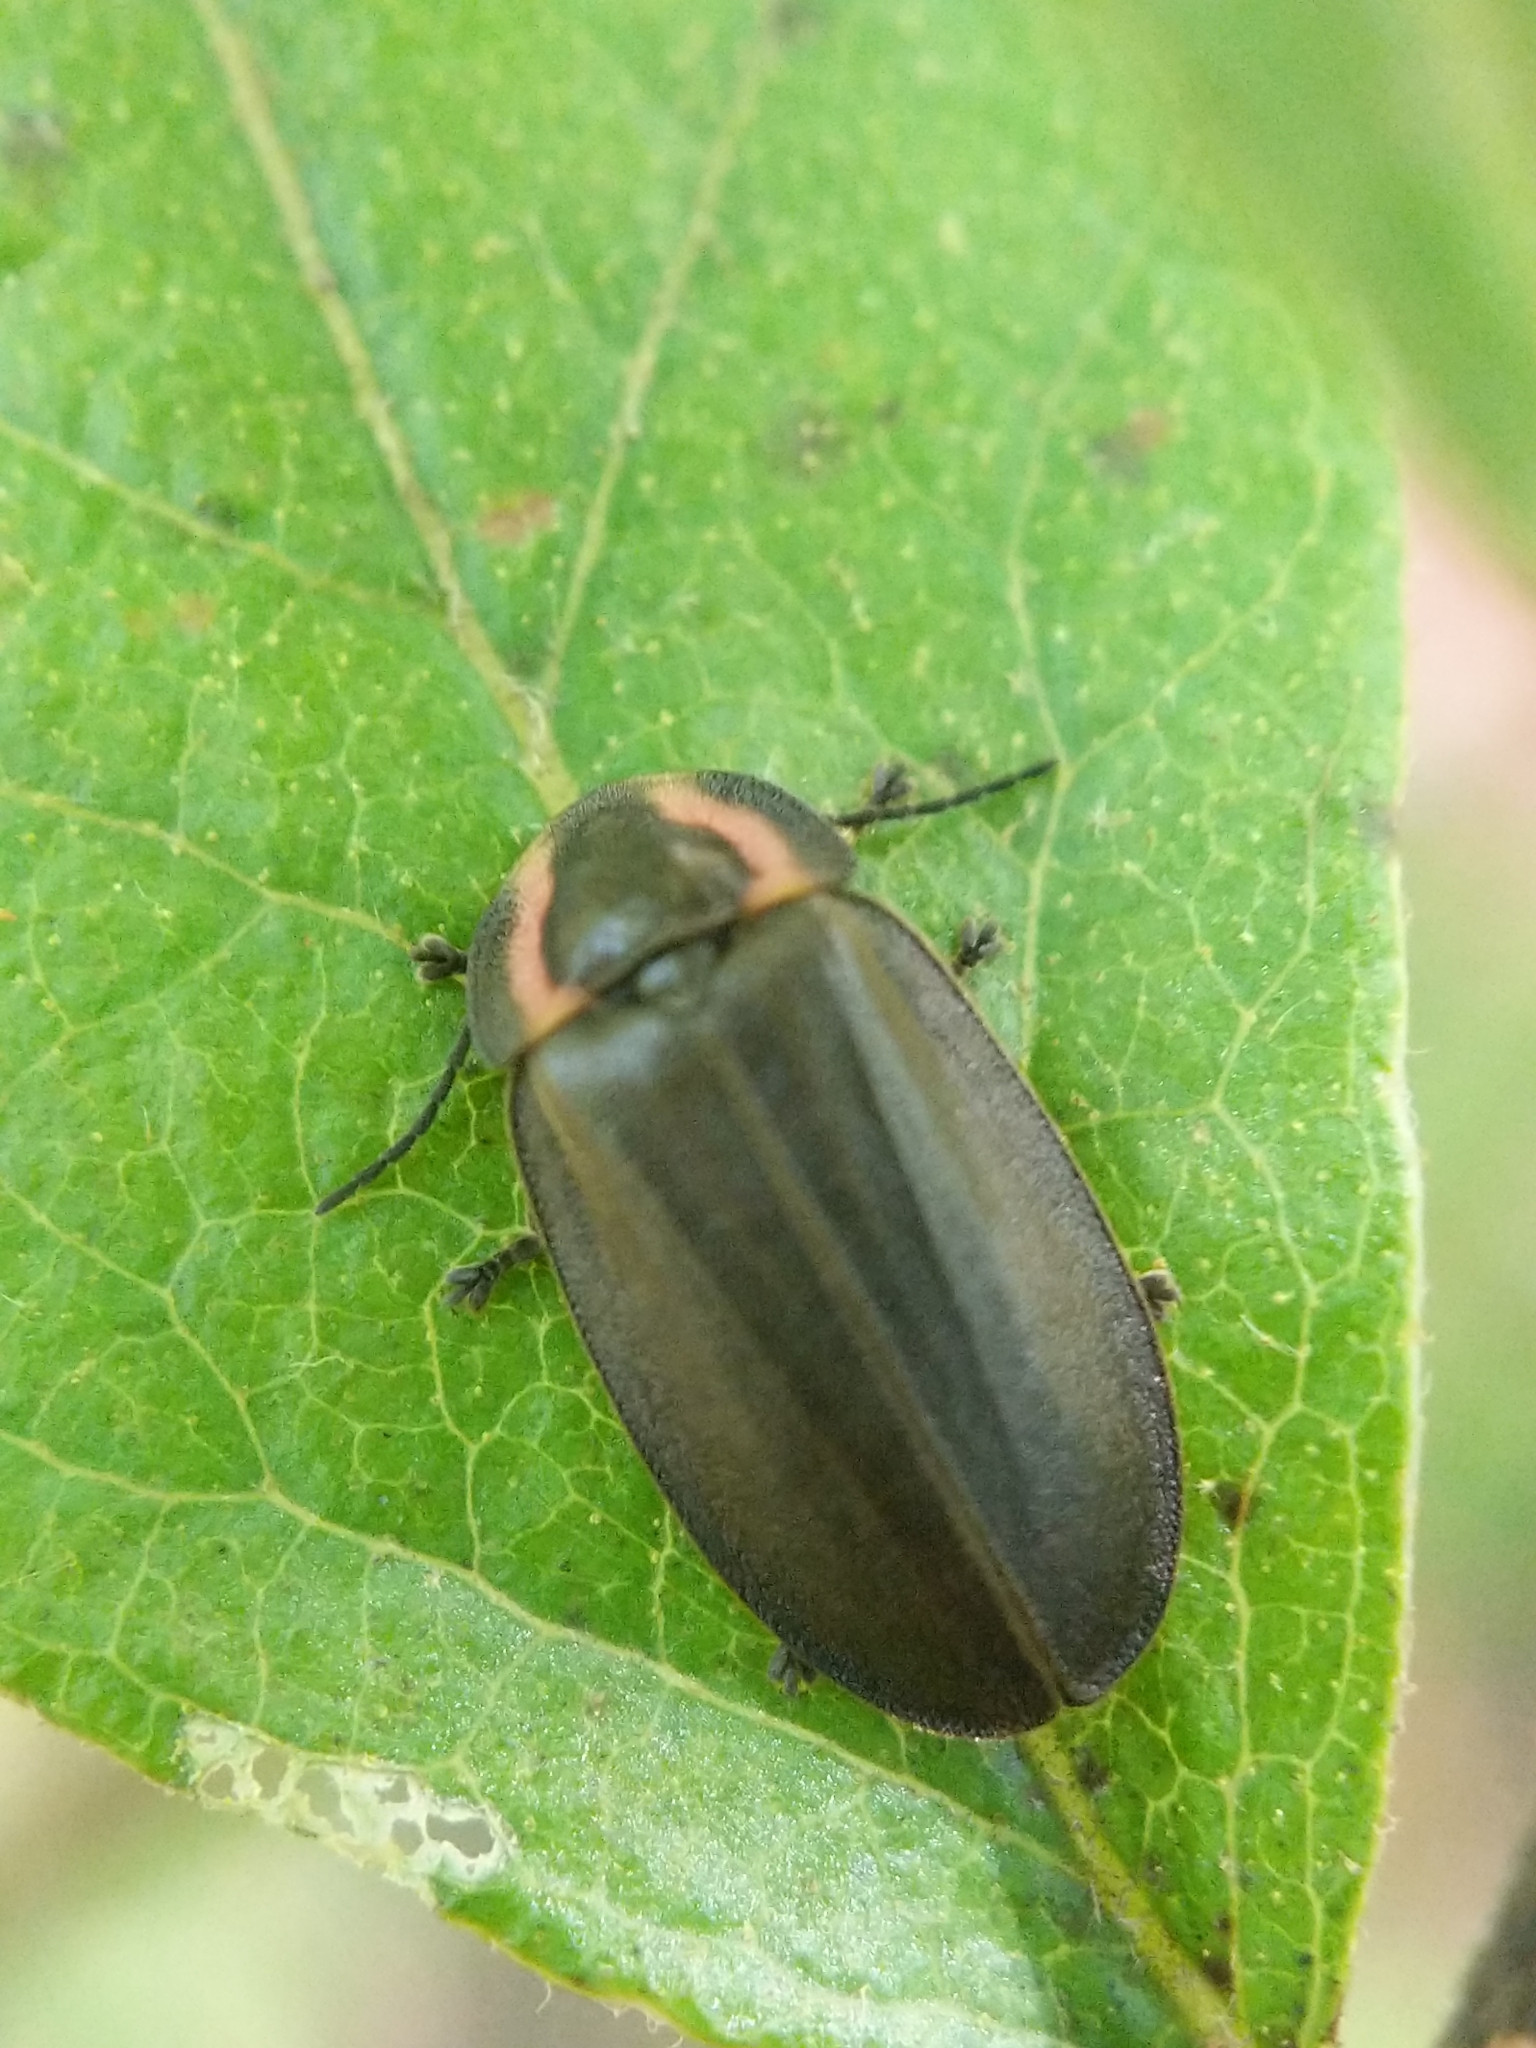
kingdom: Animalia
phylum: Arthropoda
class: Insecta
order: Coleoptera
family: Lampyridae
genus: Photinus
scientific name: Photinus corrusca
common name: Winter firefly
